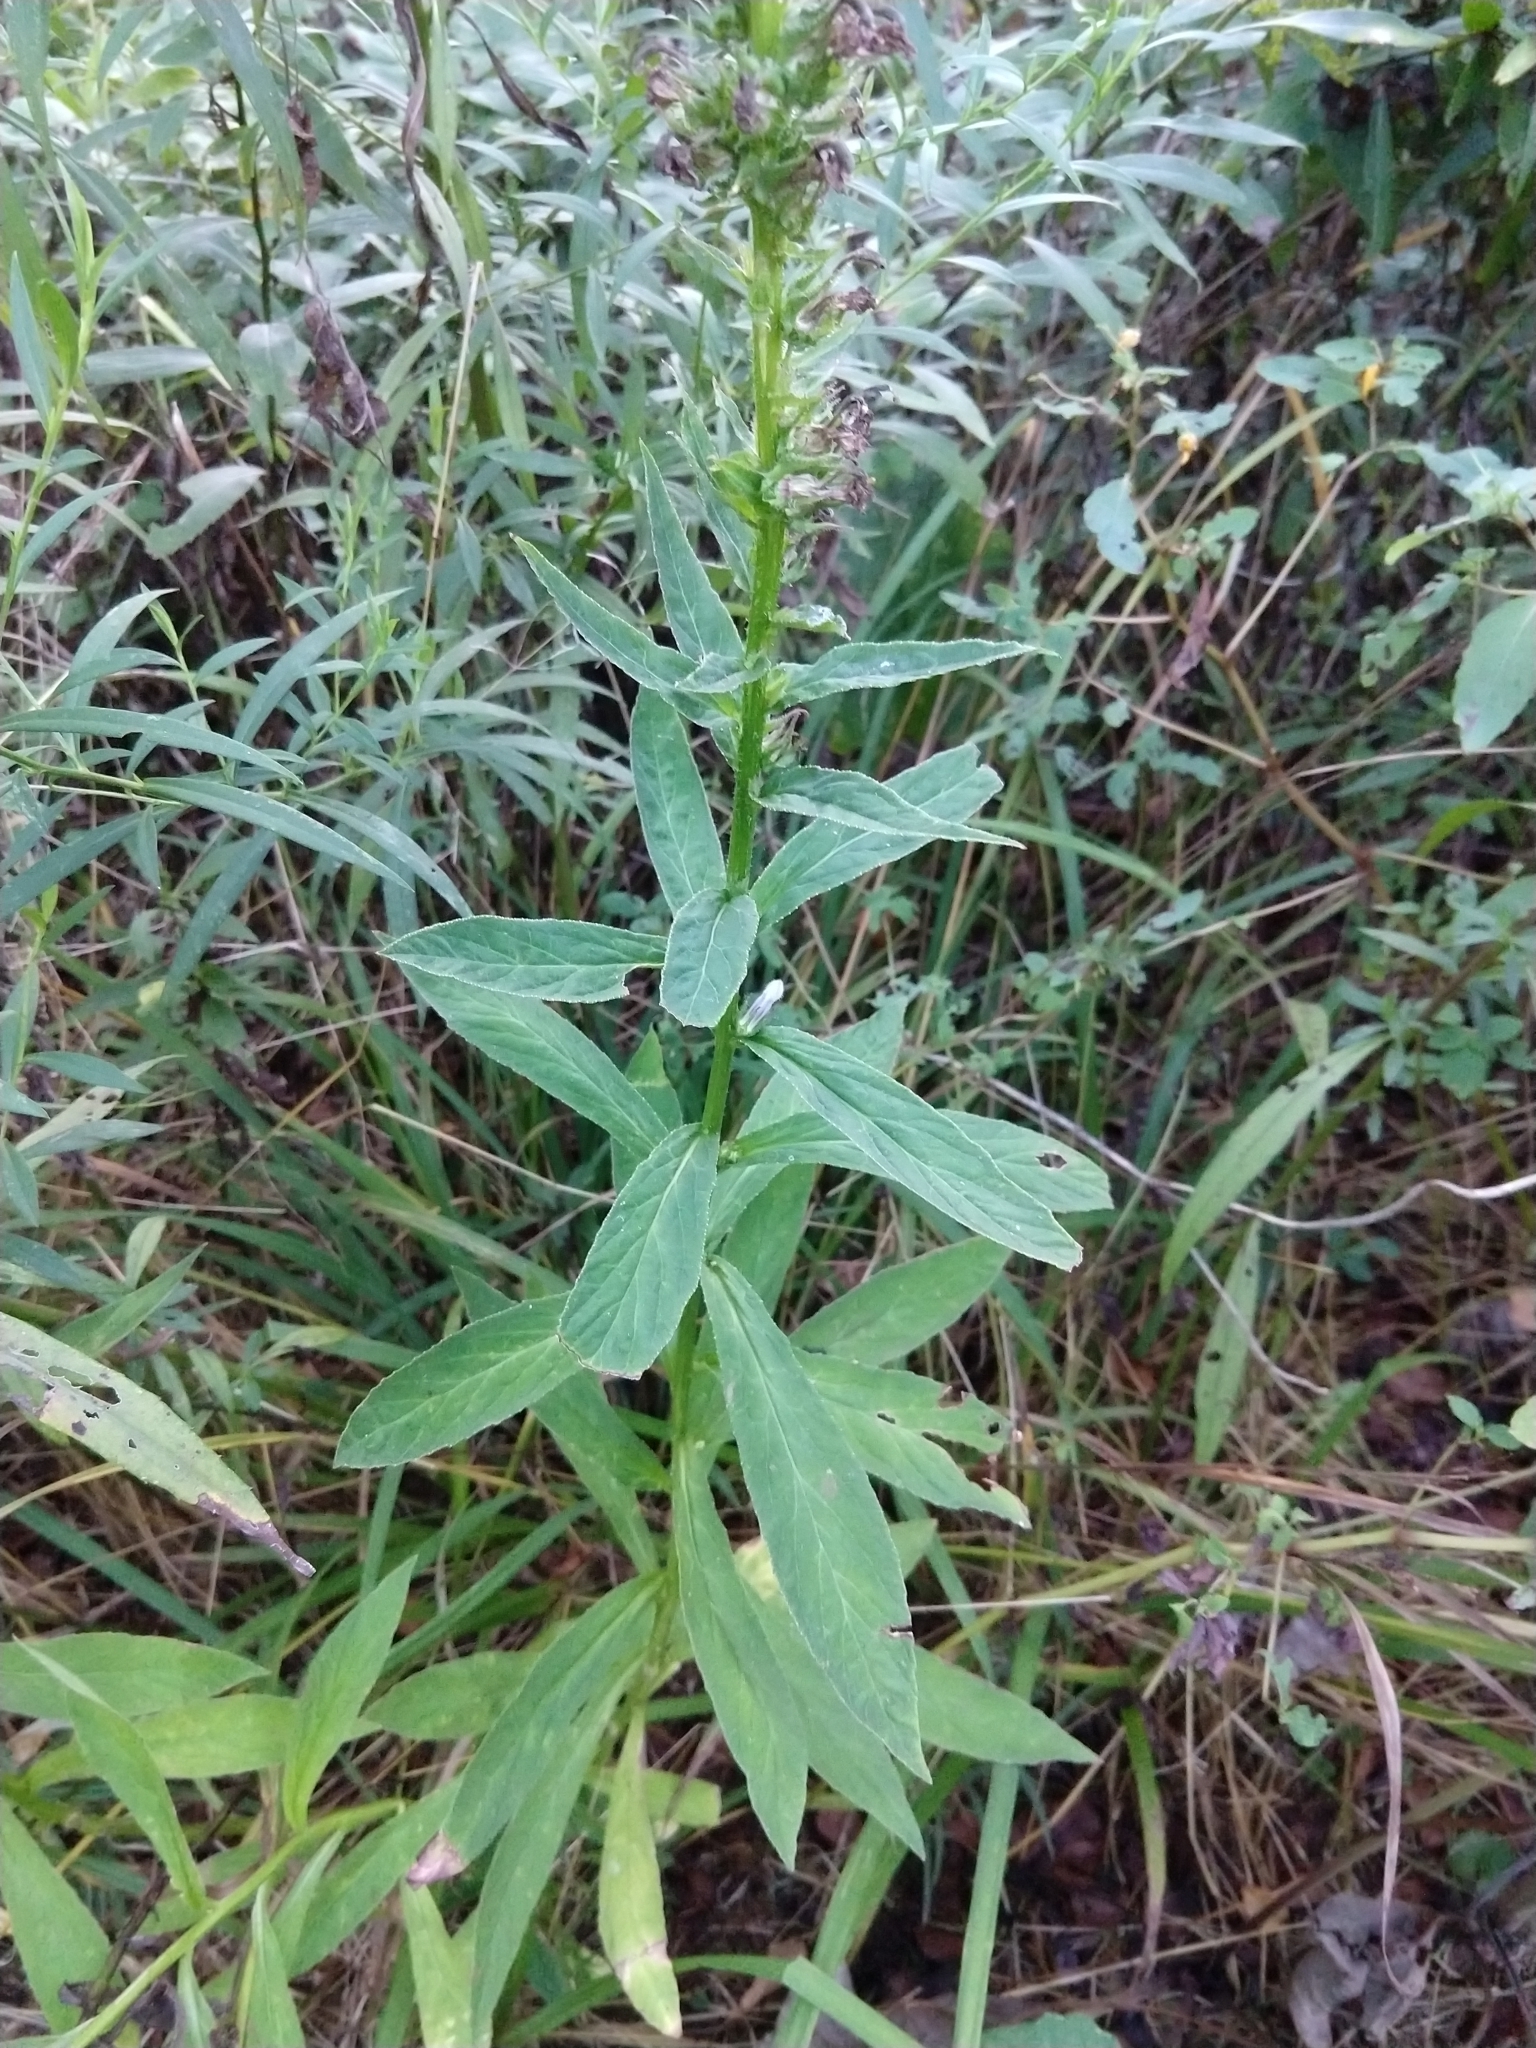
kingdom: Plantae
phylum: Tracheophyta
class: Magnoliopsida
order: Asterales
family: Campanulaceae
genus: Lobelia
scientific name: Lobelia siphilitica
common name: Great lobelia
